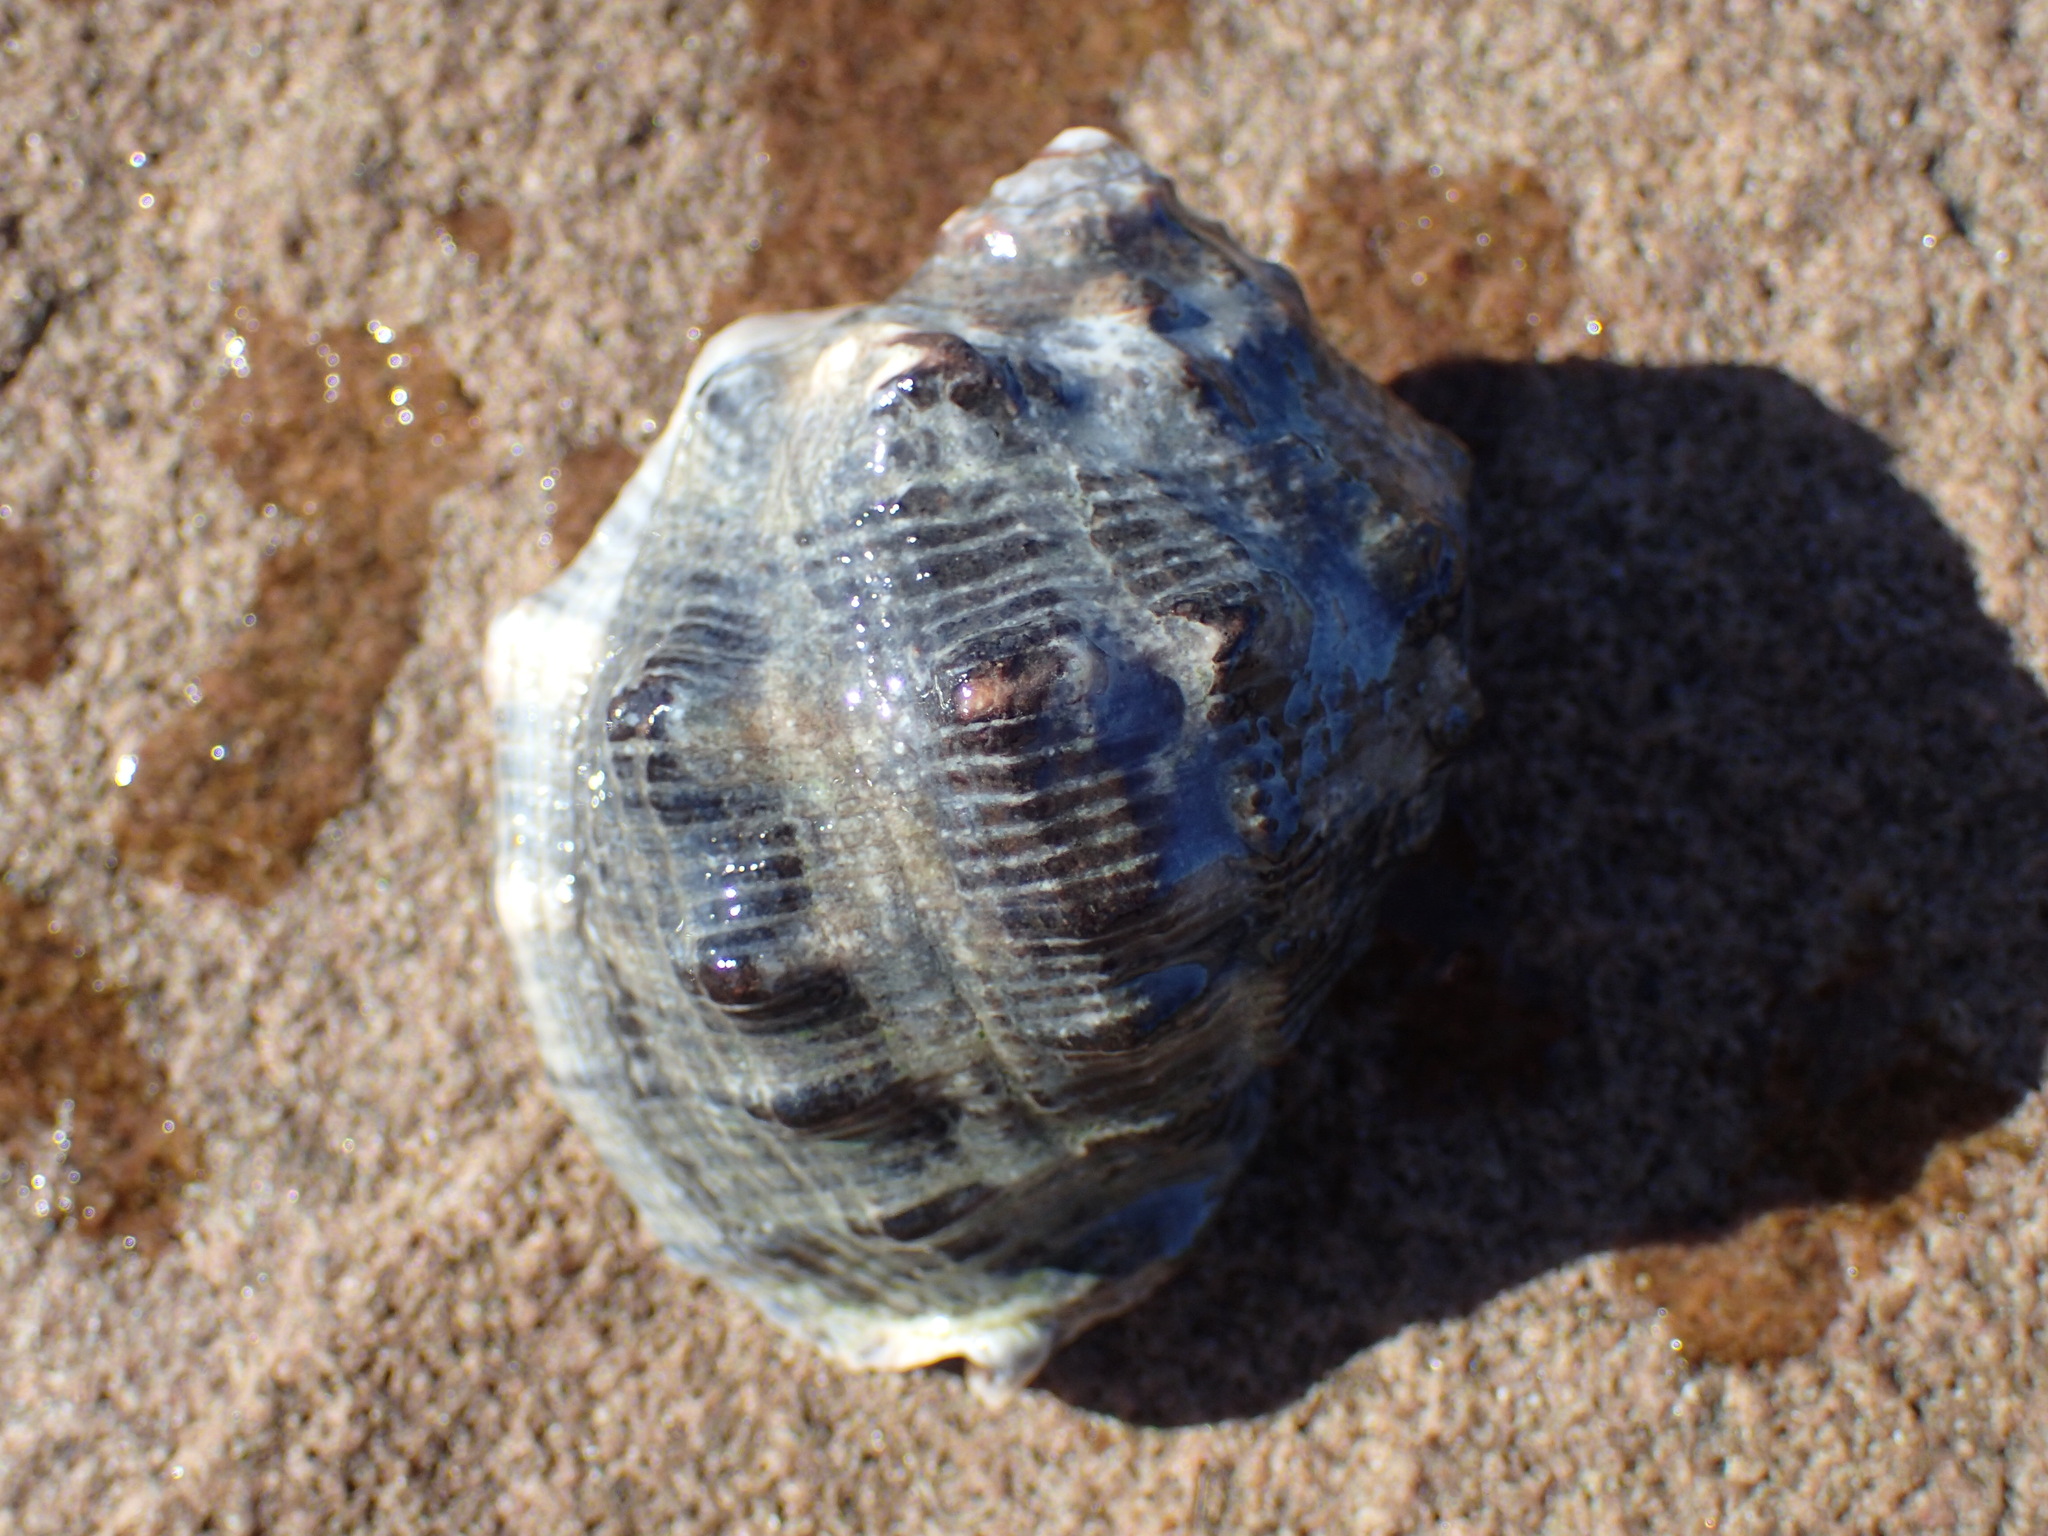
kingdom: Animalia
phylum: Mollusca
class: Gastropoda
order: Neogastropoda
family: Muricidae
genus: Purpura
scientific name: Purpura bufo
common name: Toad purple
